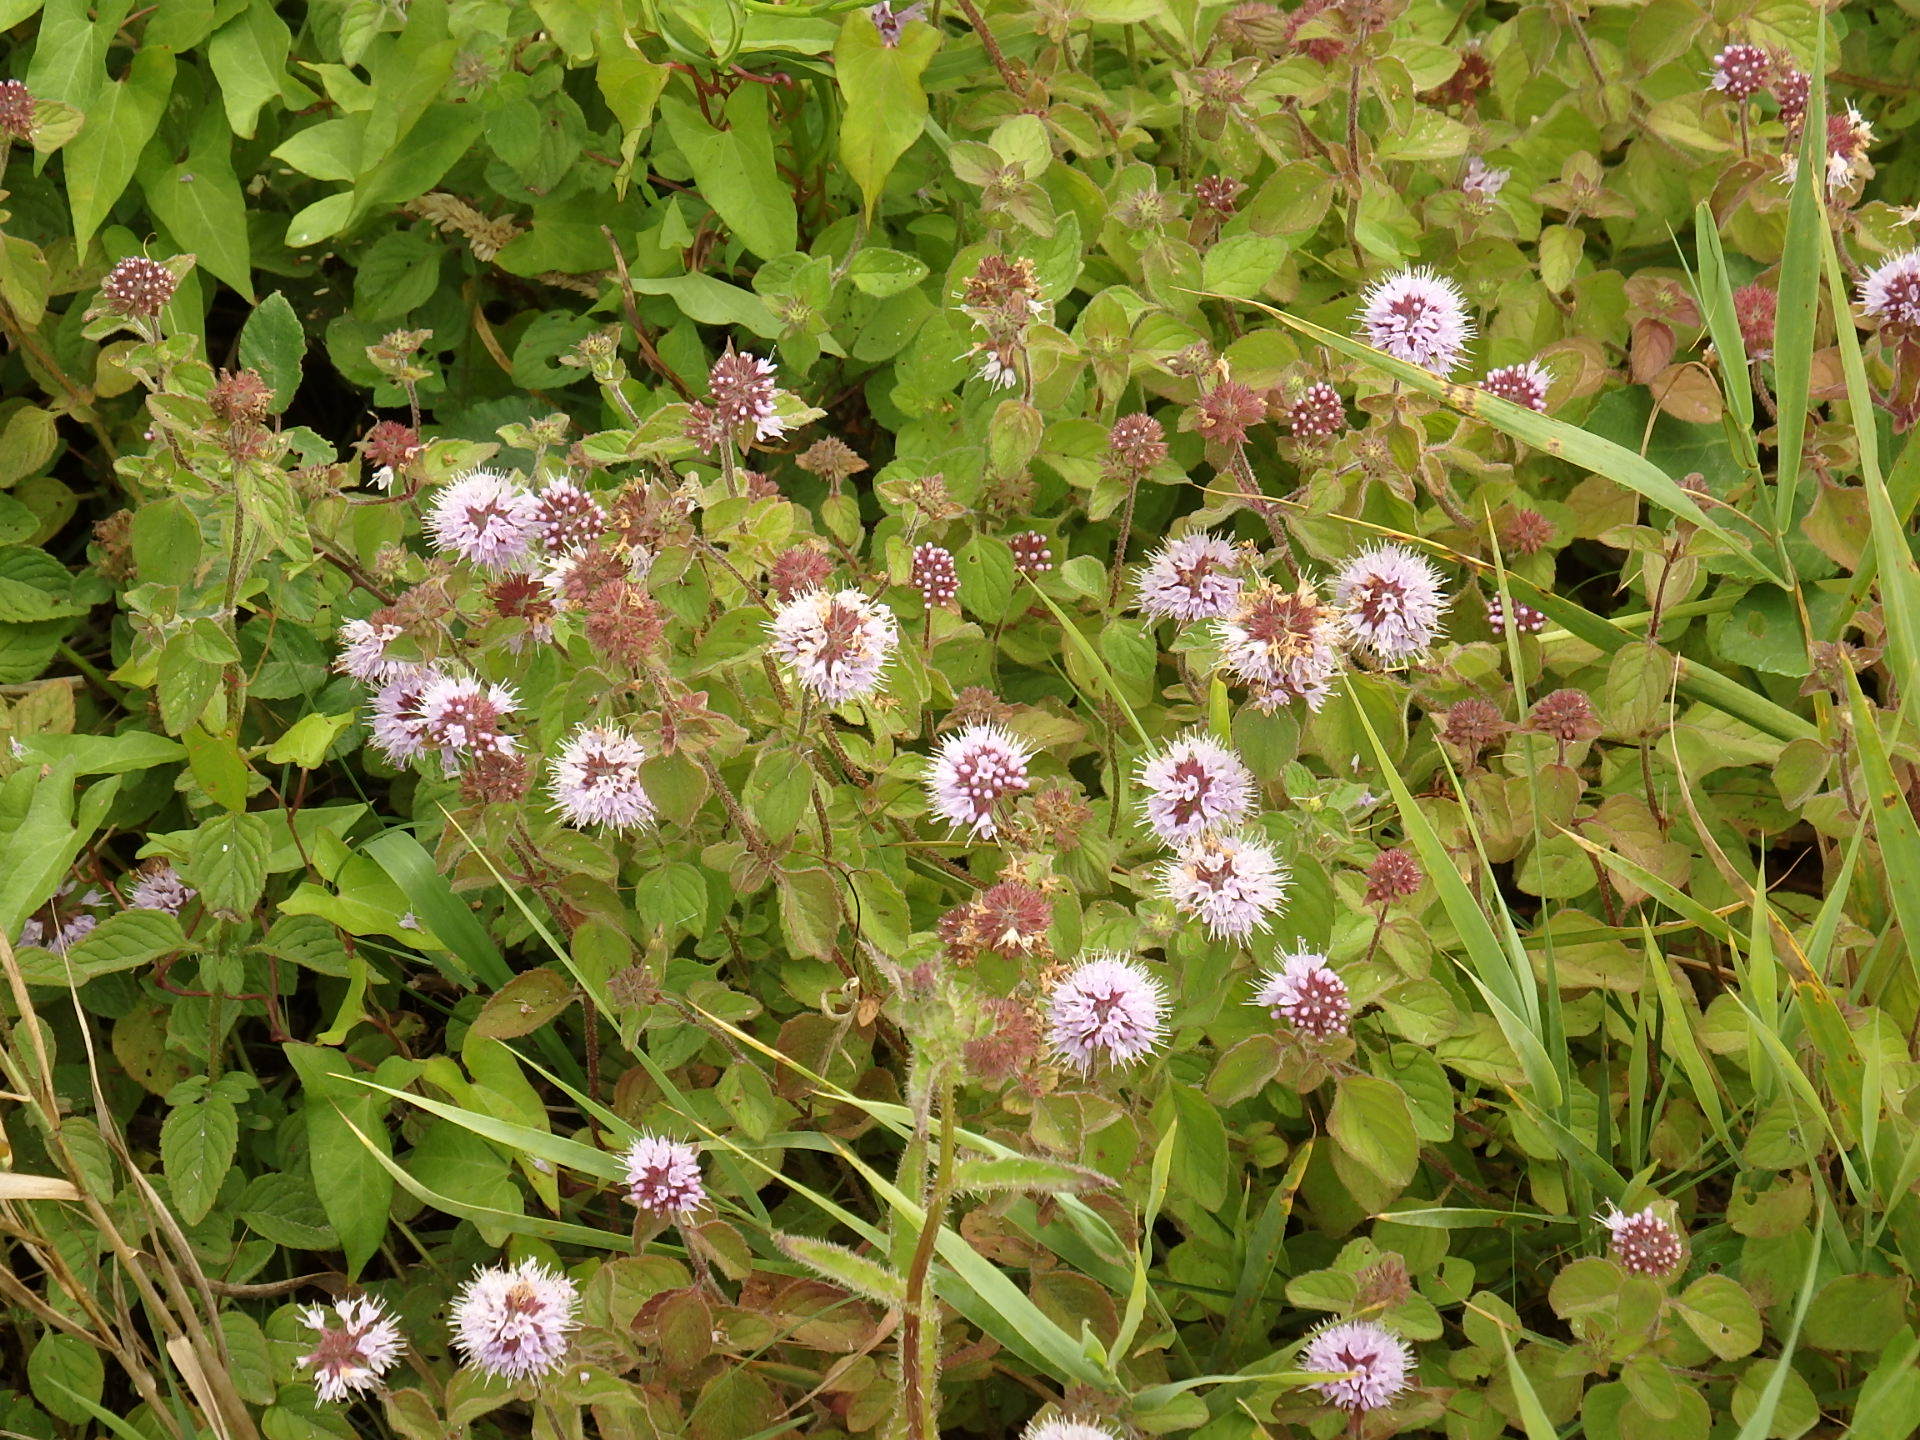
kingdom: Plantae
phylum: Tracheophyta
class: Magnoliopsida
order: Lamiales
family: Lamiaceae
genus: Mentha
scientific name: Mentha aquatica
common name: Water mint
